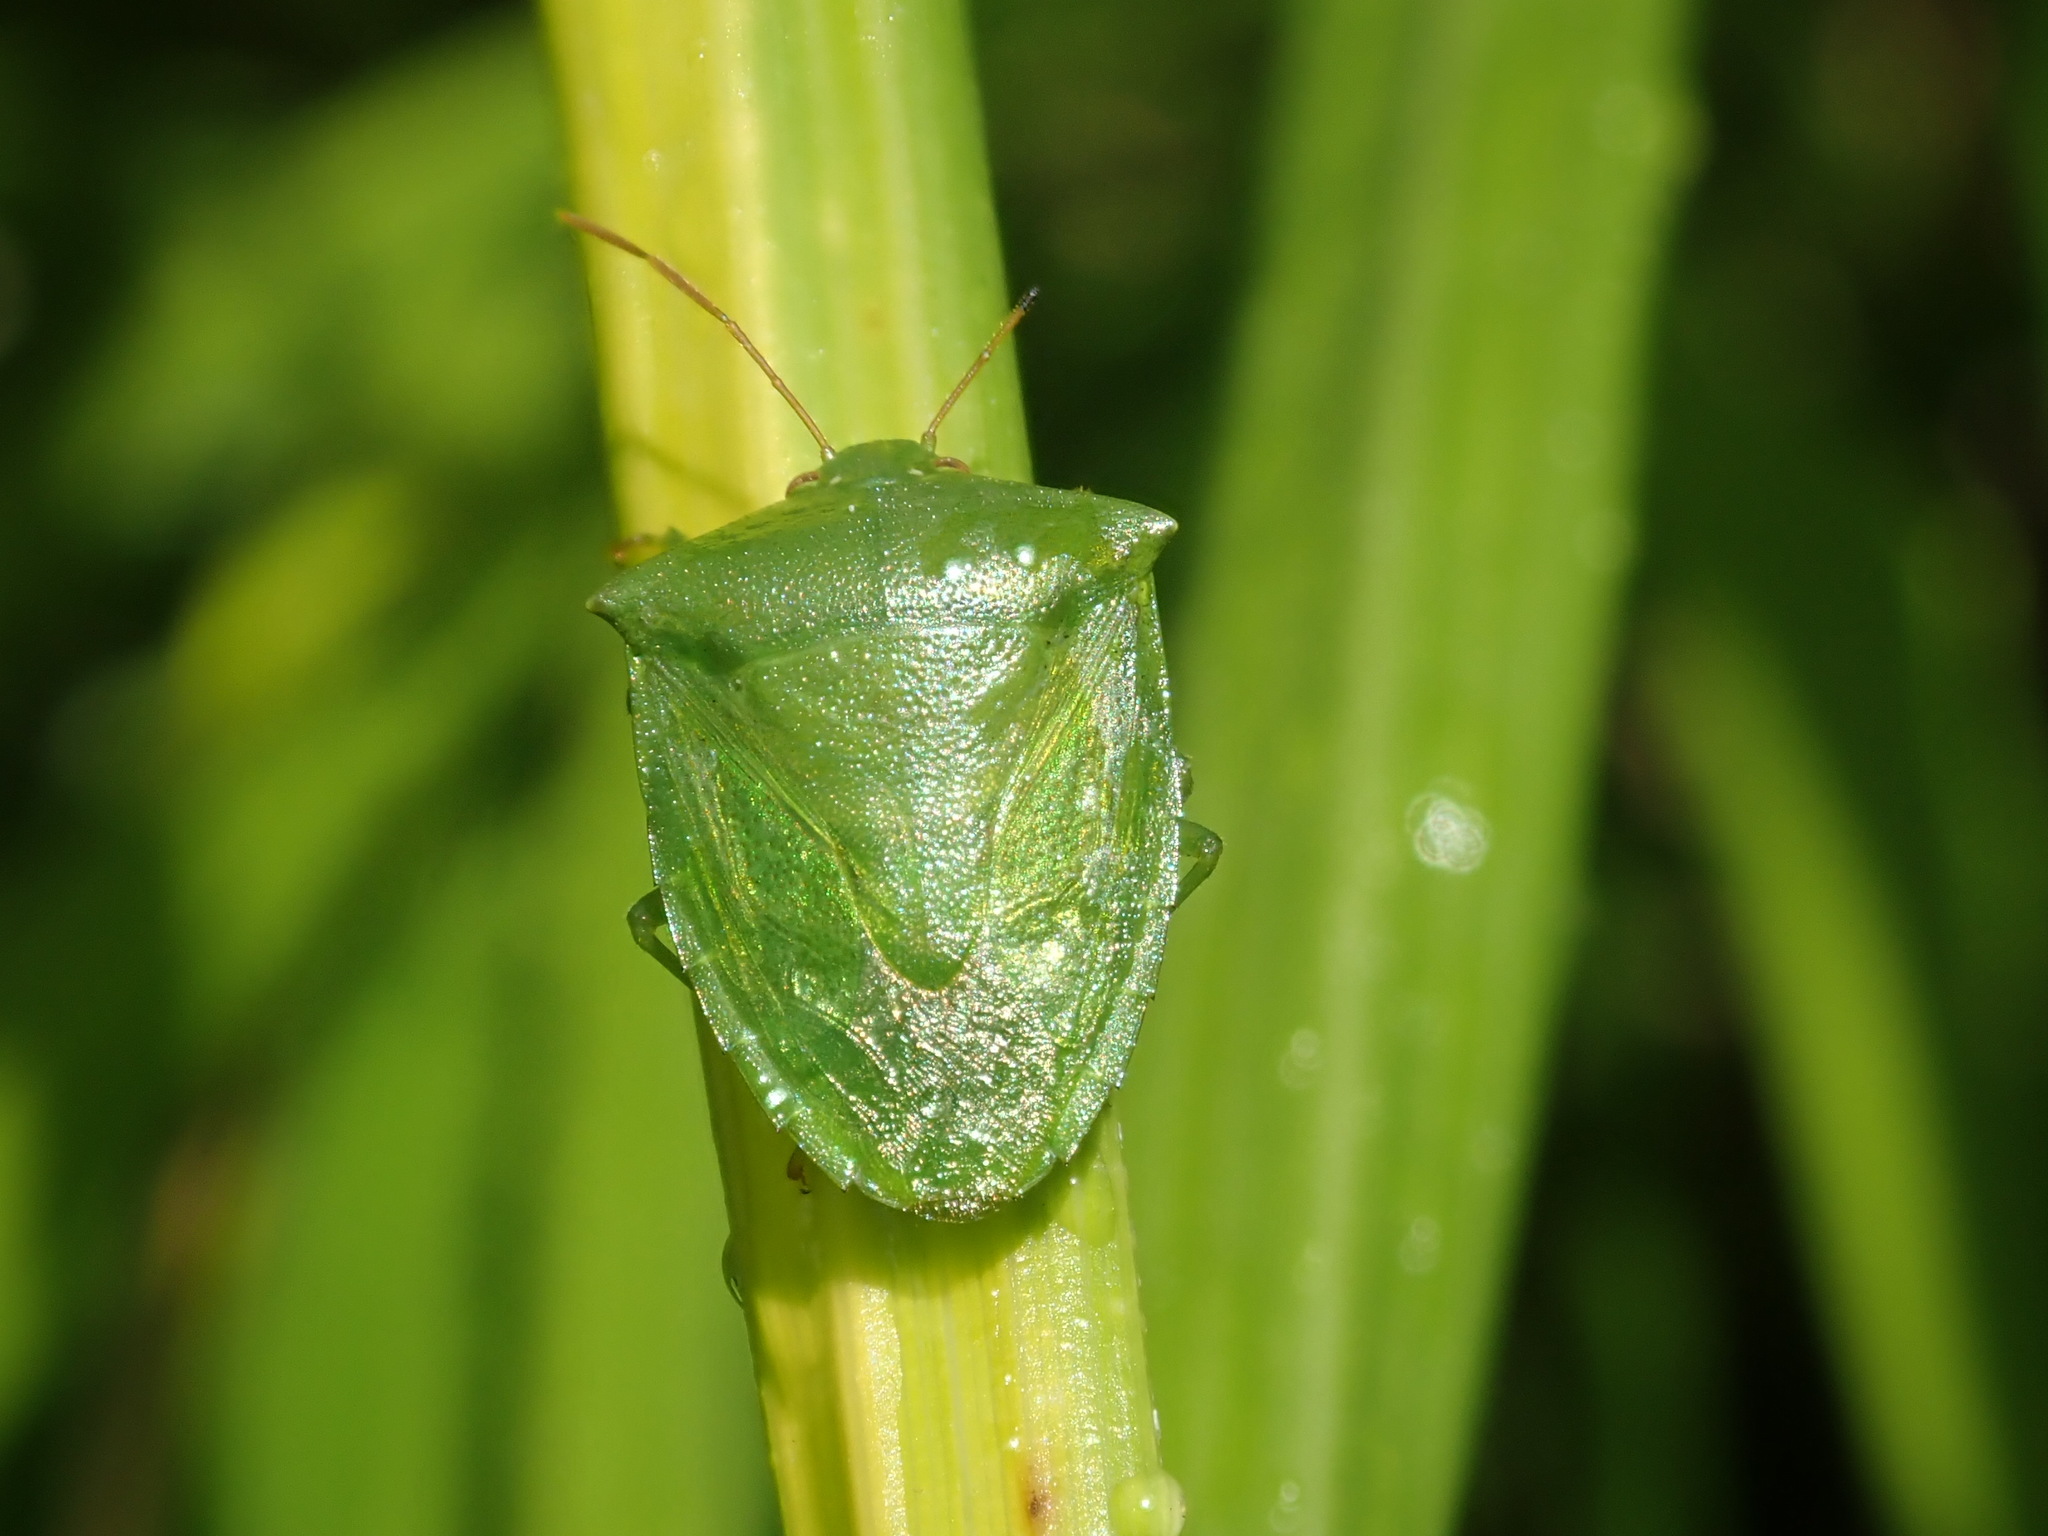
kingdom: Animalia
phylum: Arthropoda
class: Insecta
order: Hemiptera
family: Pentatomidae
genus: Cuspicona
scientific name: Cuspicona simplex
